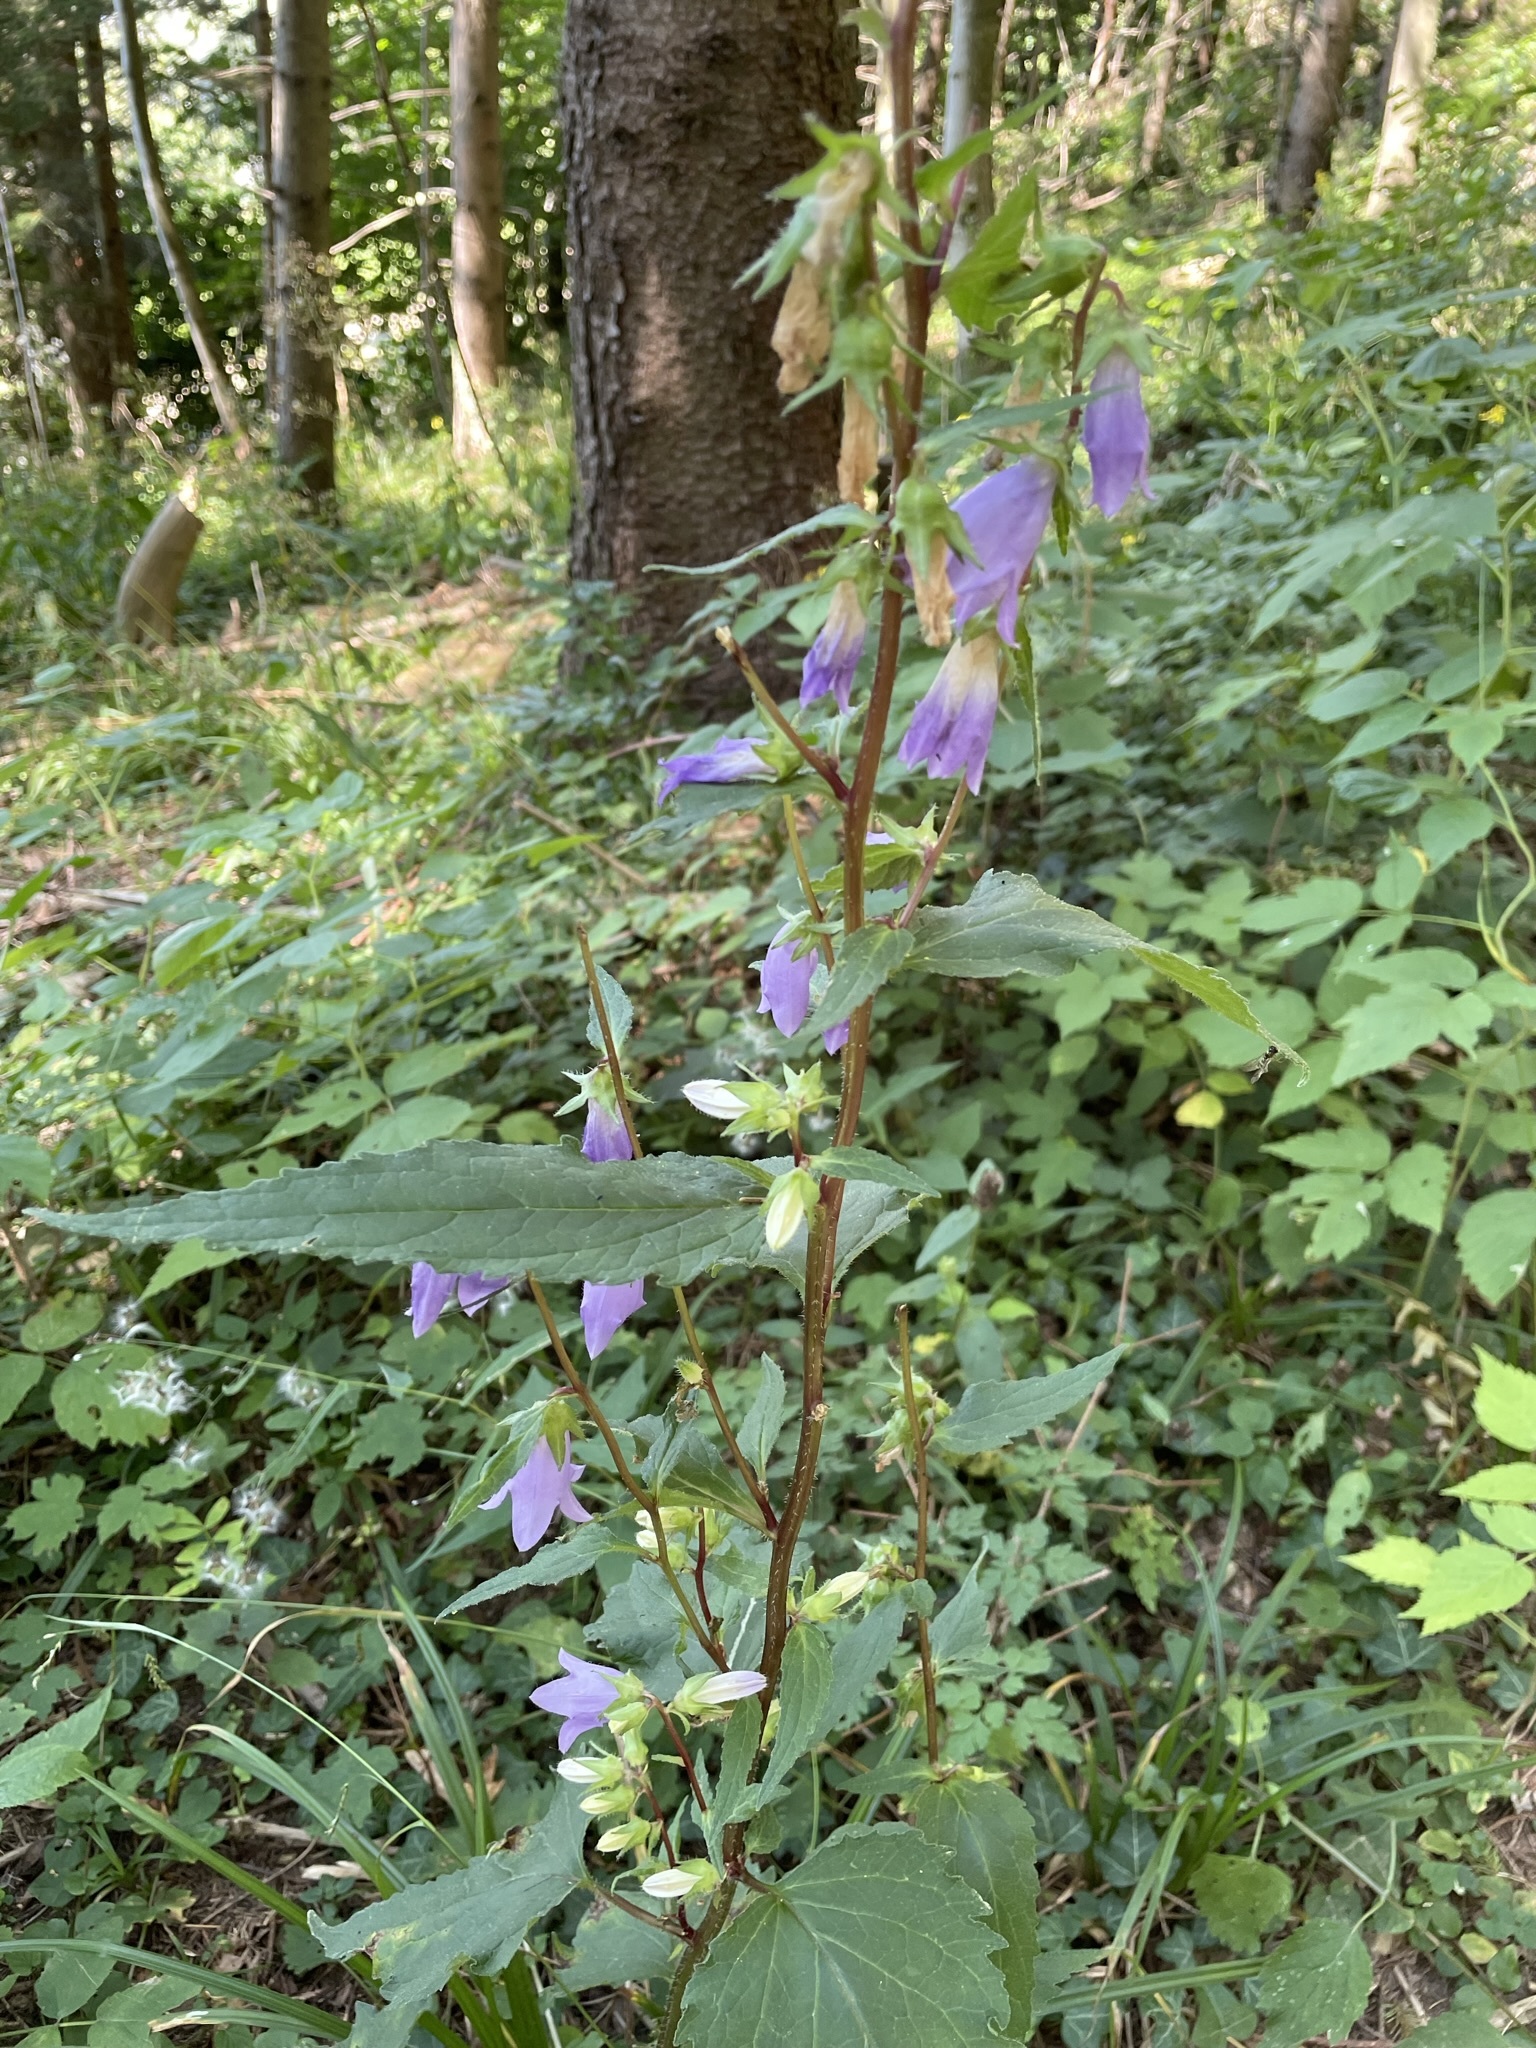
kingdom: Plantae
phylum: Tracheophyta
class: Magnoliopsida
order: Asterales
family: Campanulaceae
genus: Campanula
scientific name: Campanula trachelium
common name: Nettle-leaved bellflower
